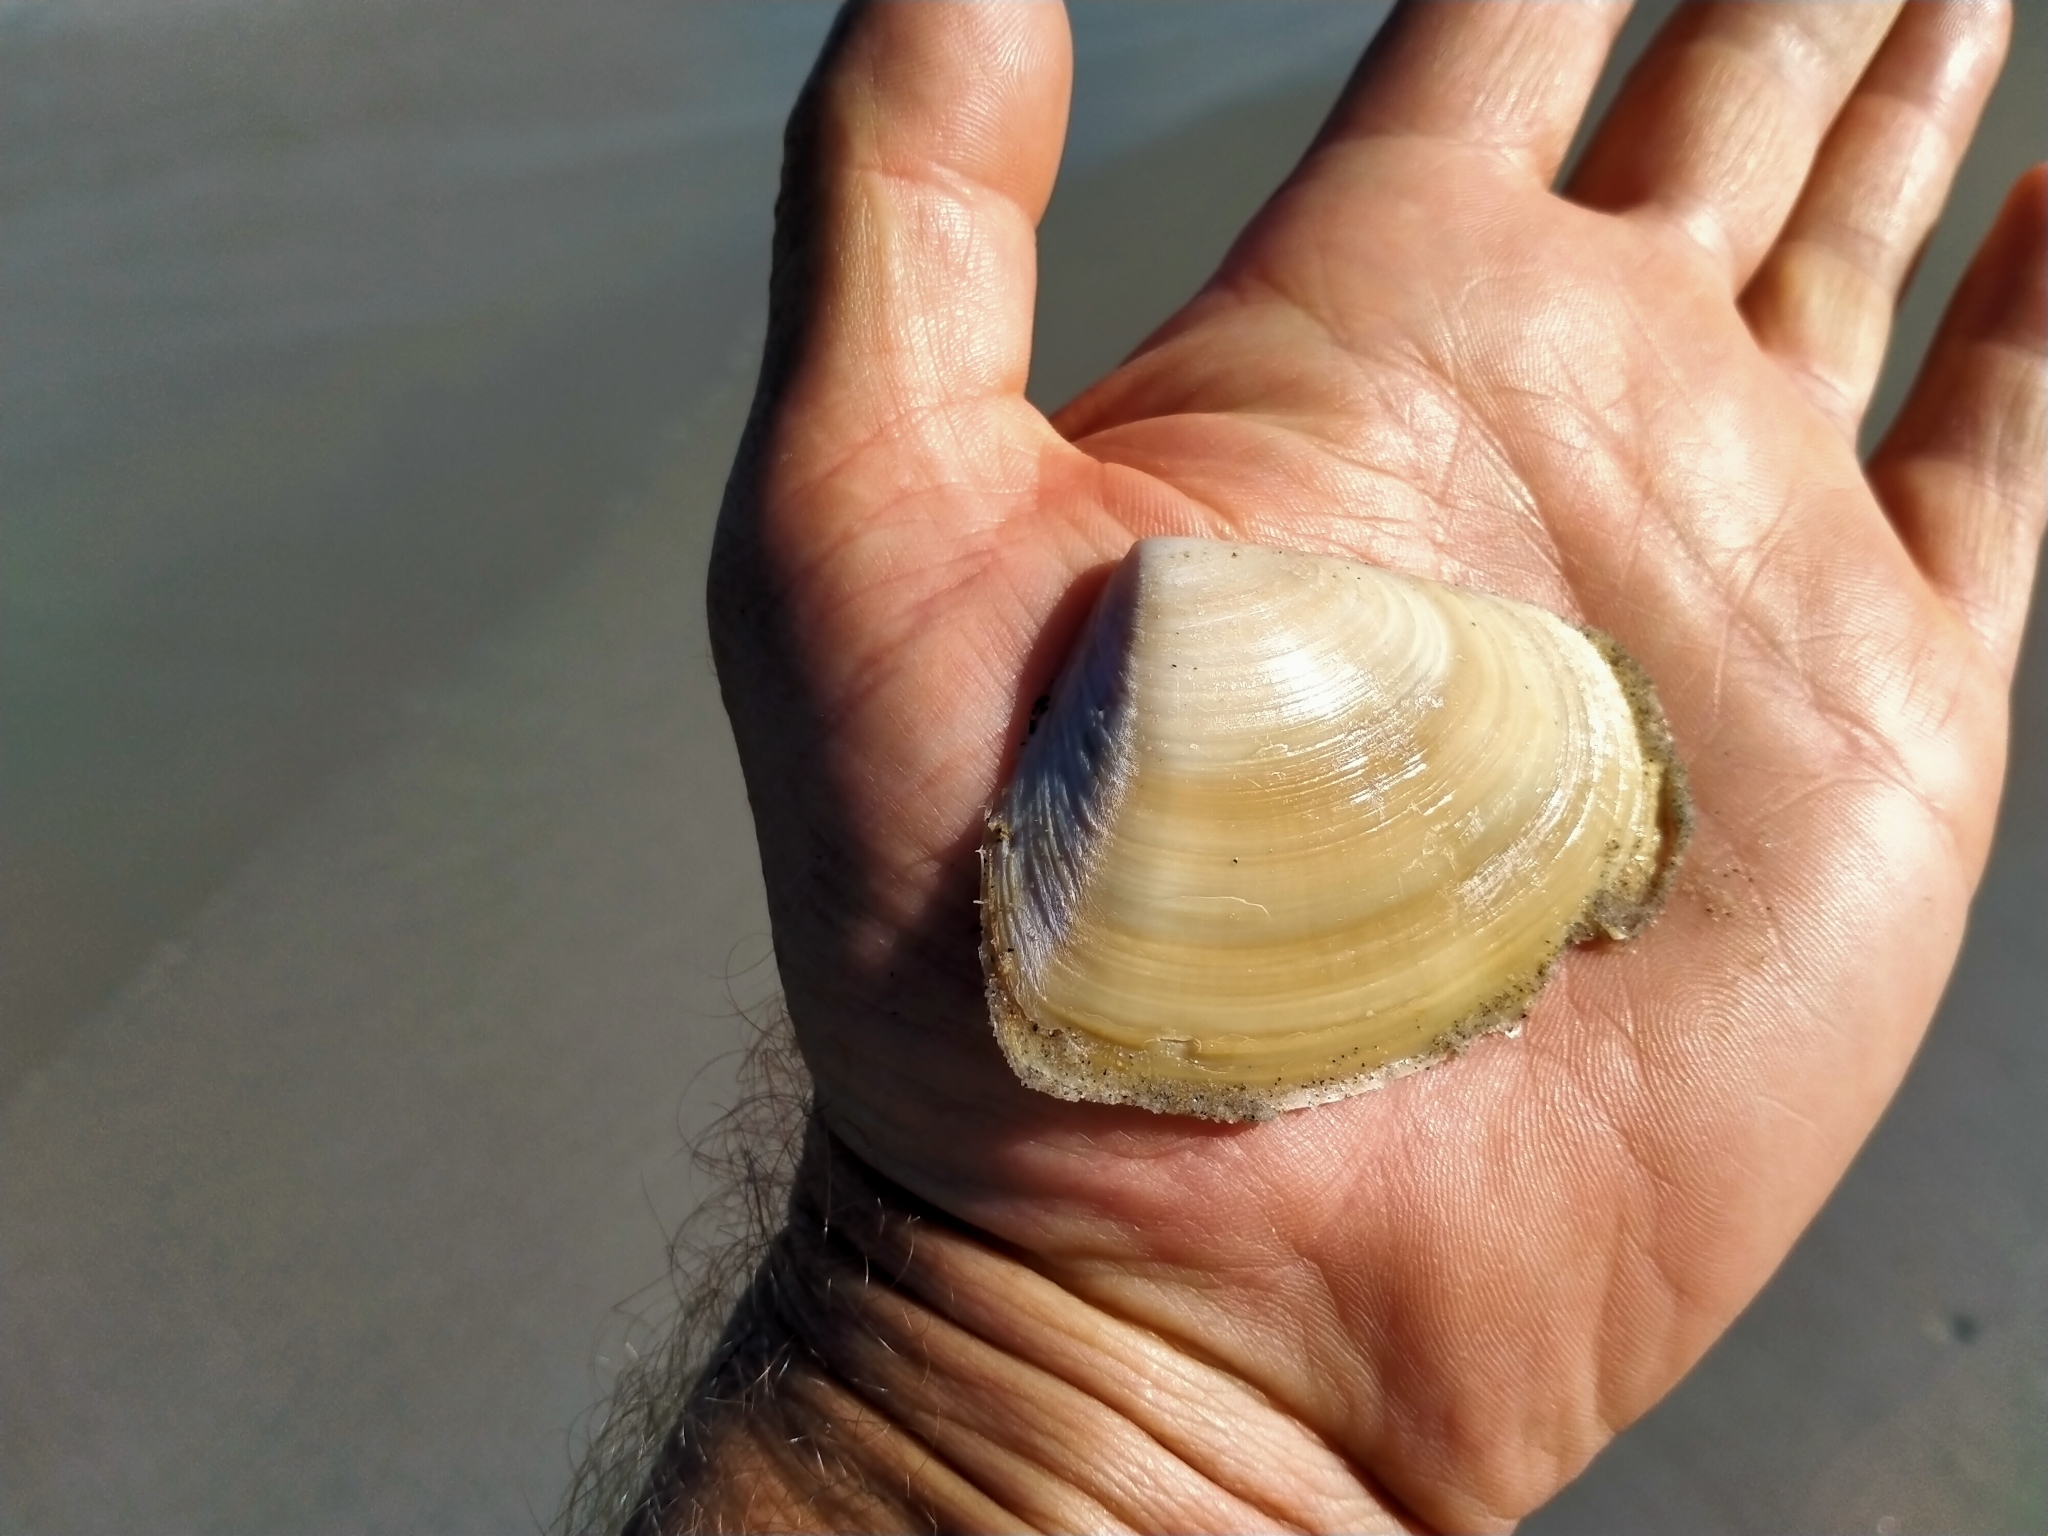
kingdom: Animalia
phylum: Mollusca
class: Bivalvia
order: Venerida
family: Mesodesmatidae
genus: Paphies
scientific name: Paphies donacina
